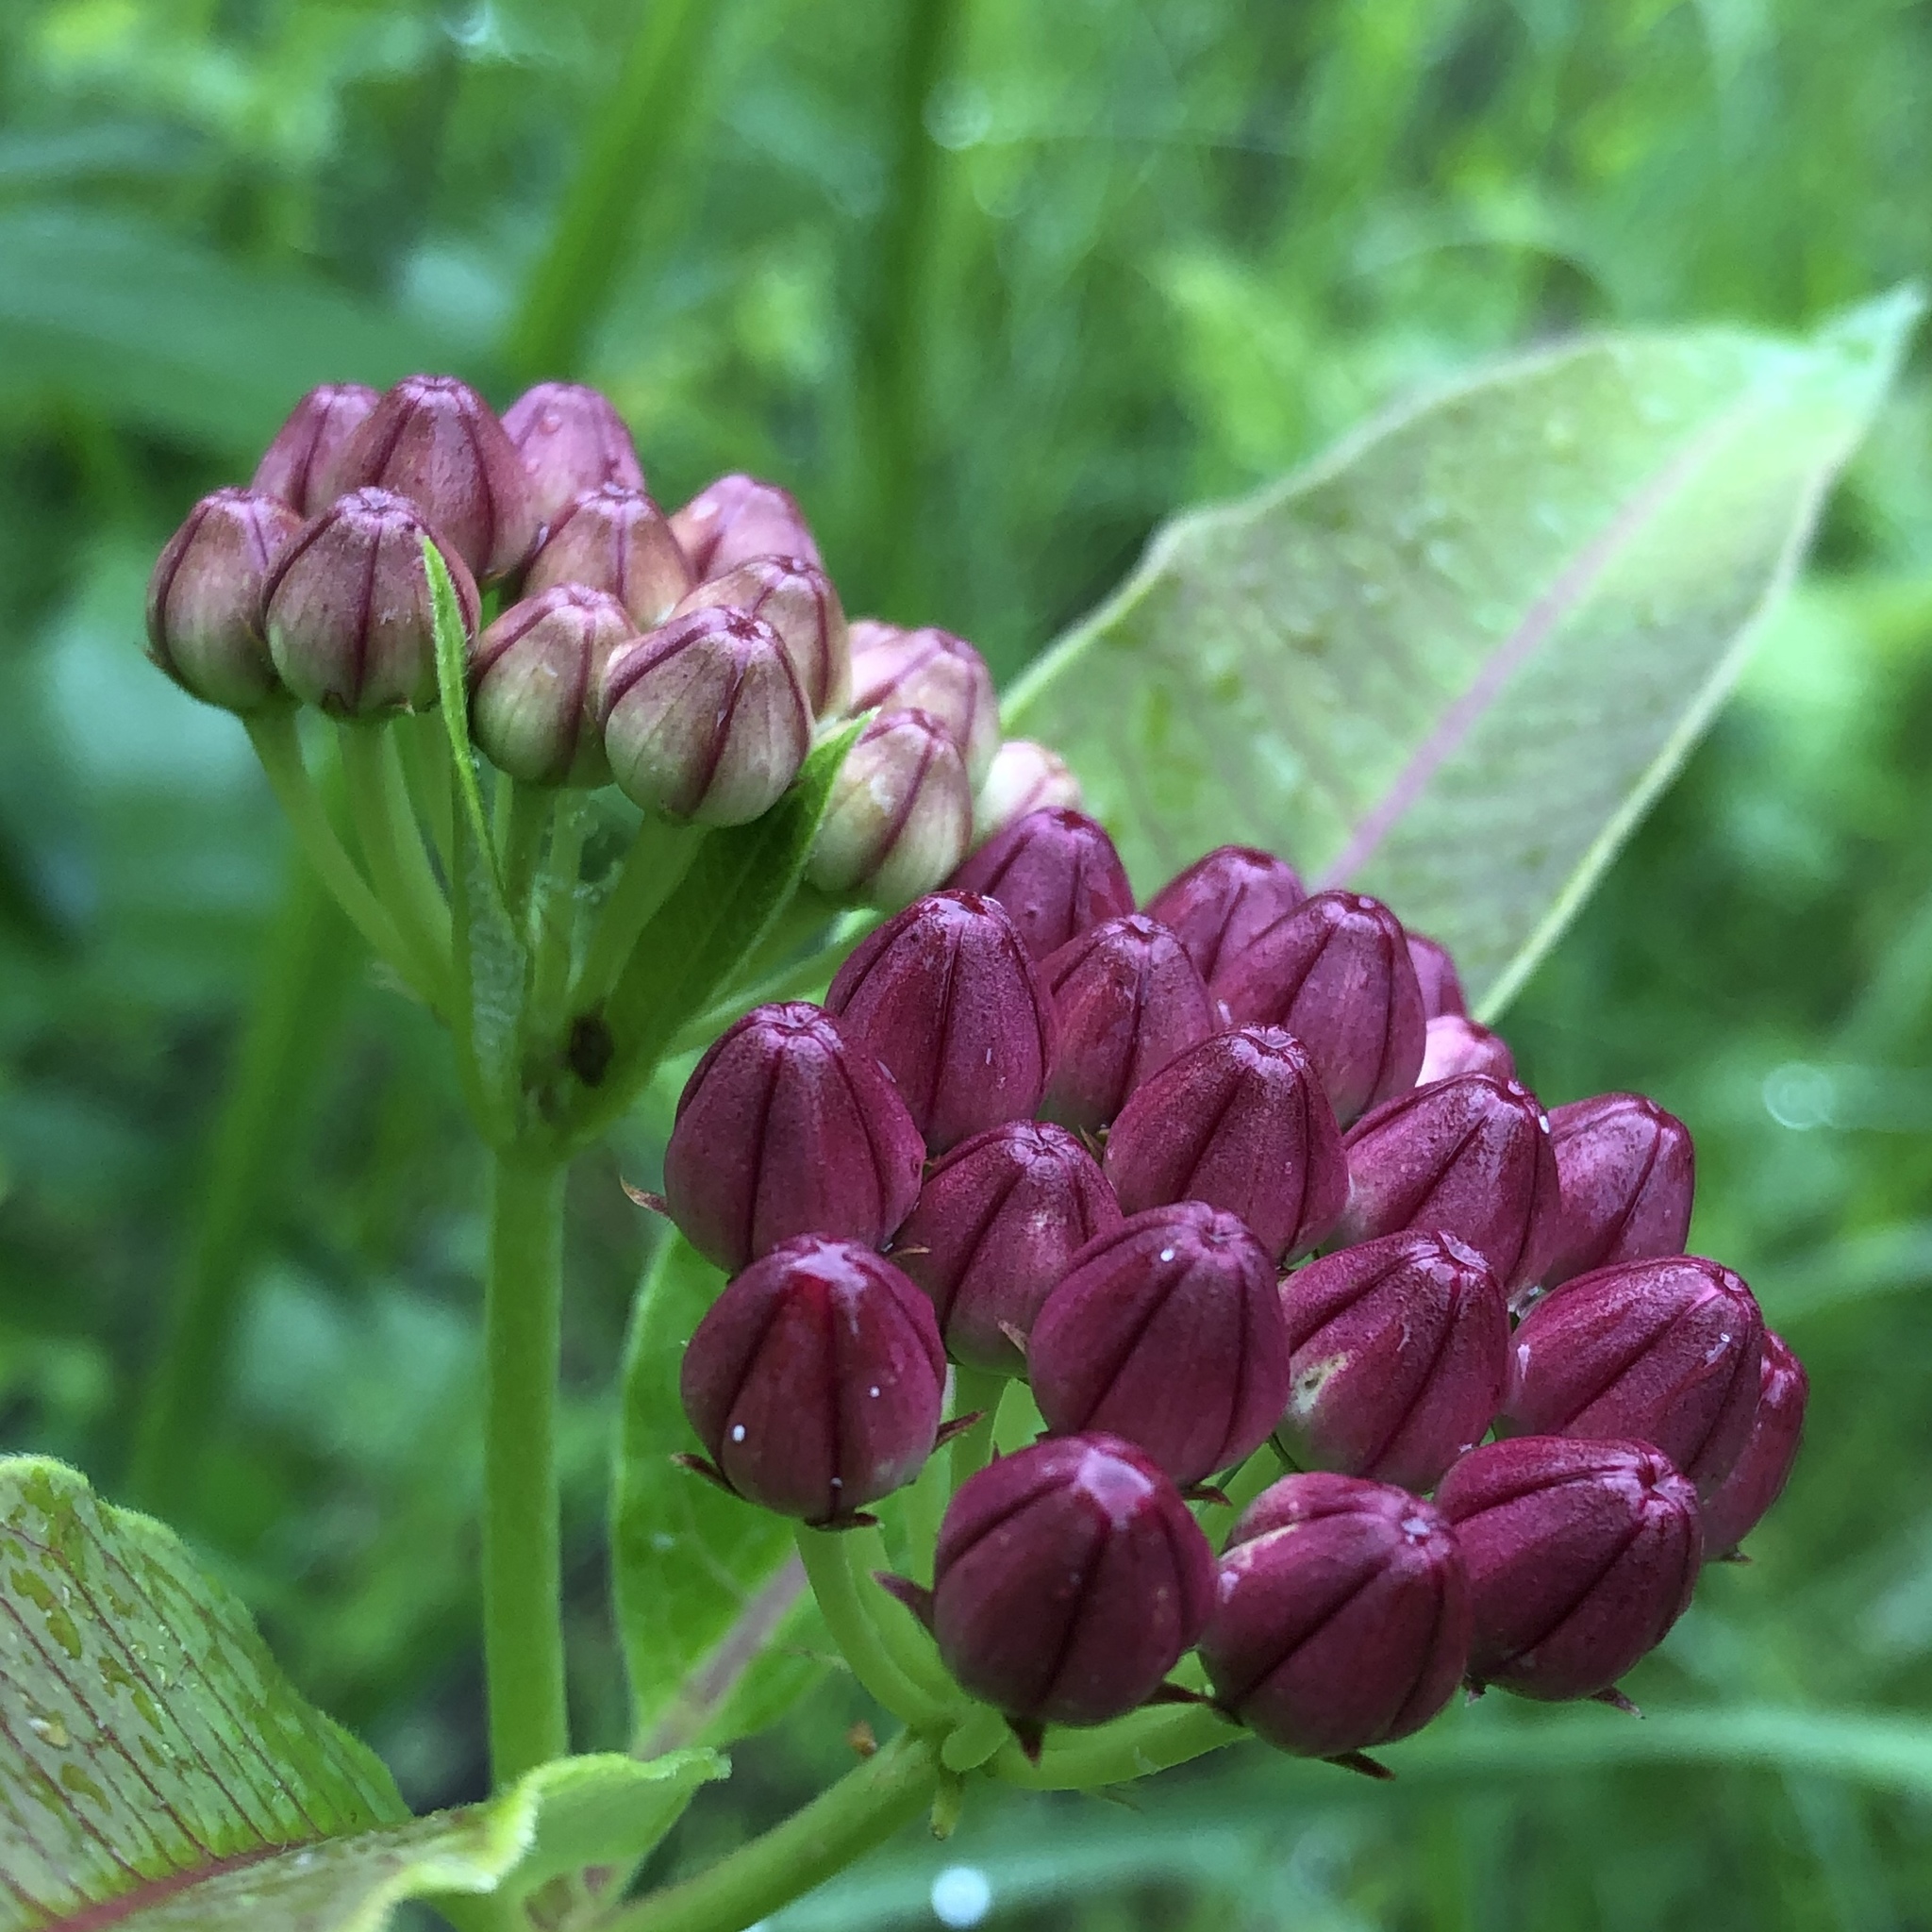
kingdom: Plantae
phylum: Tracheophyta
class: Magnoliopsida
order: Gentianales
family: Apocynaceae
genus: Asclepias
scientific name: Asclepias purpurascens
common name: Purple milkweed
